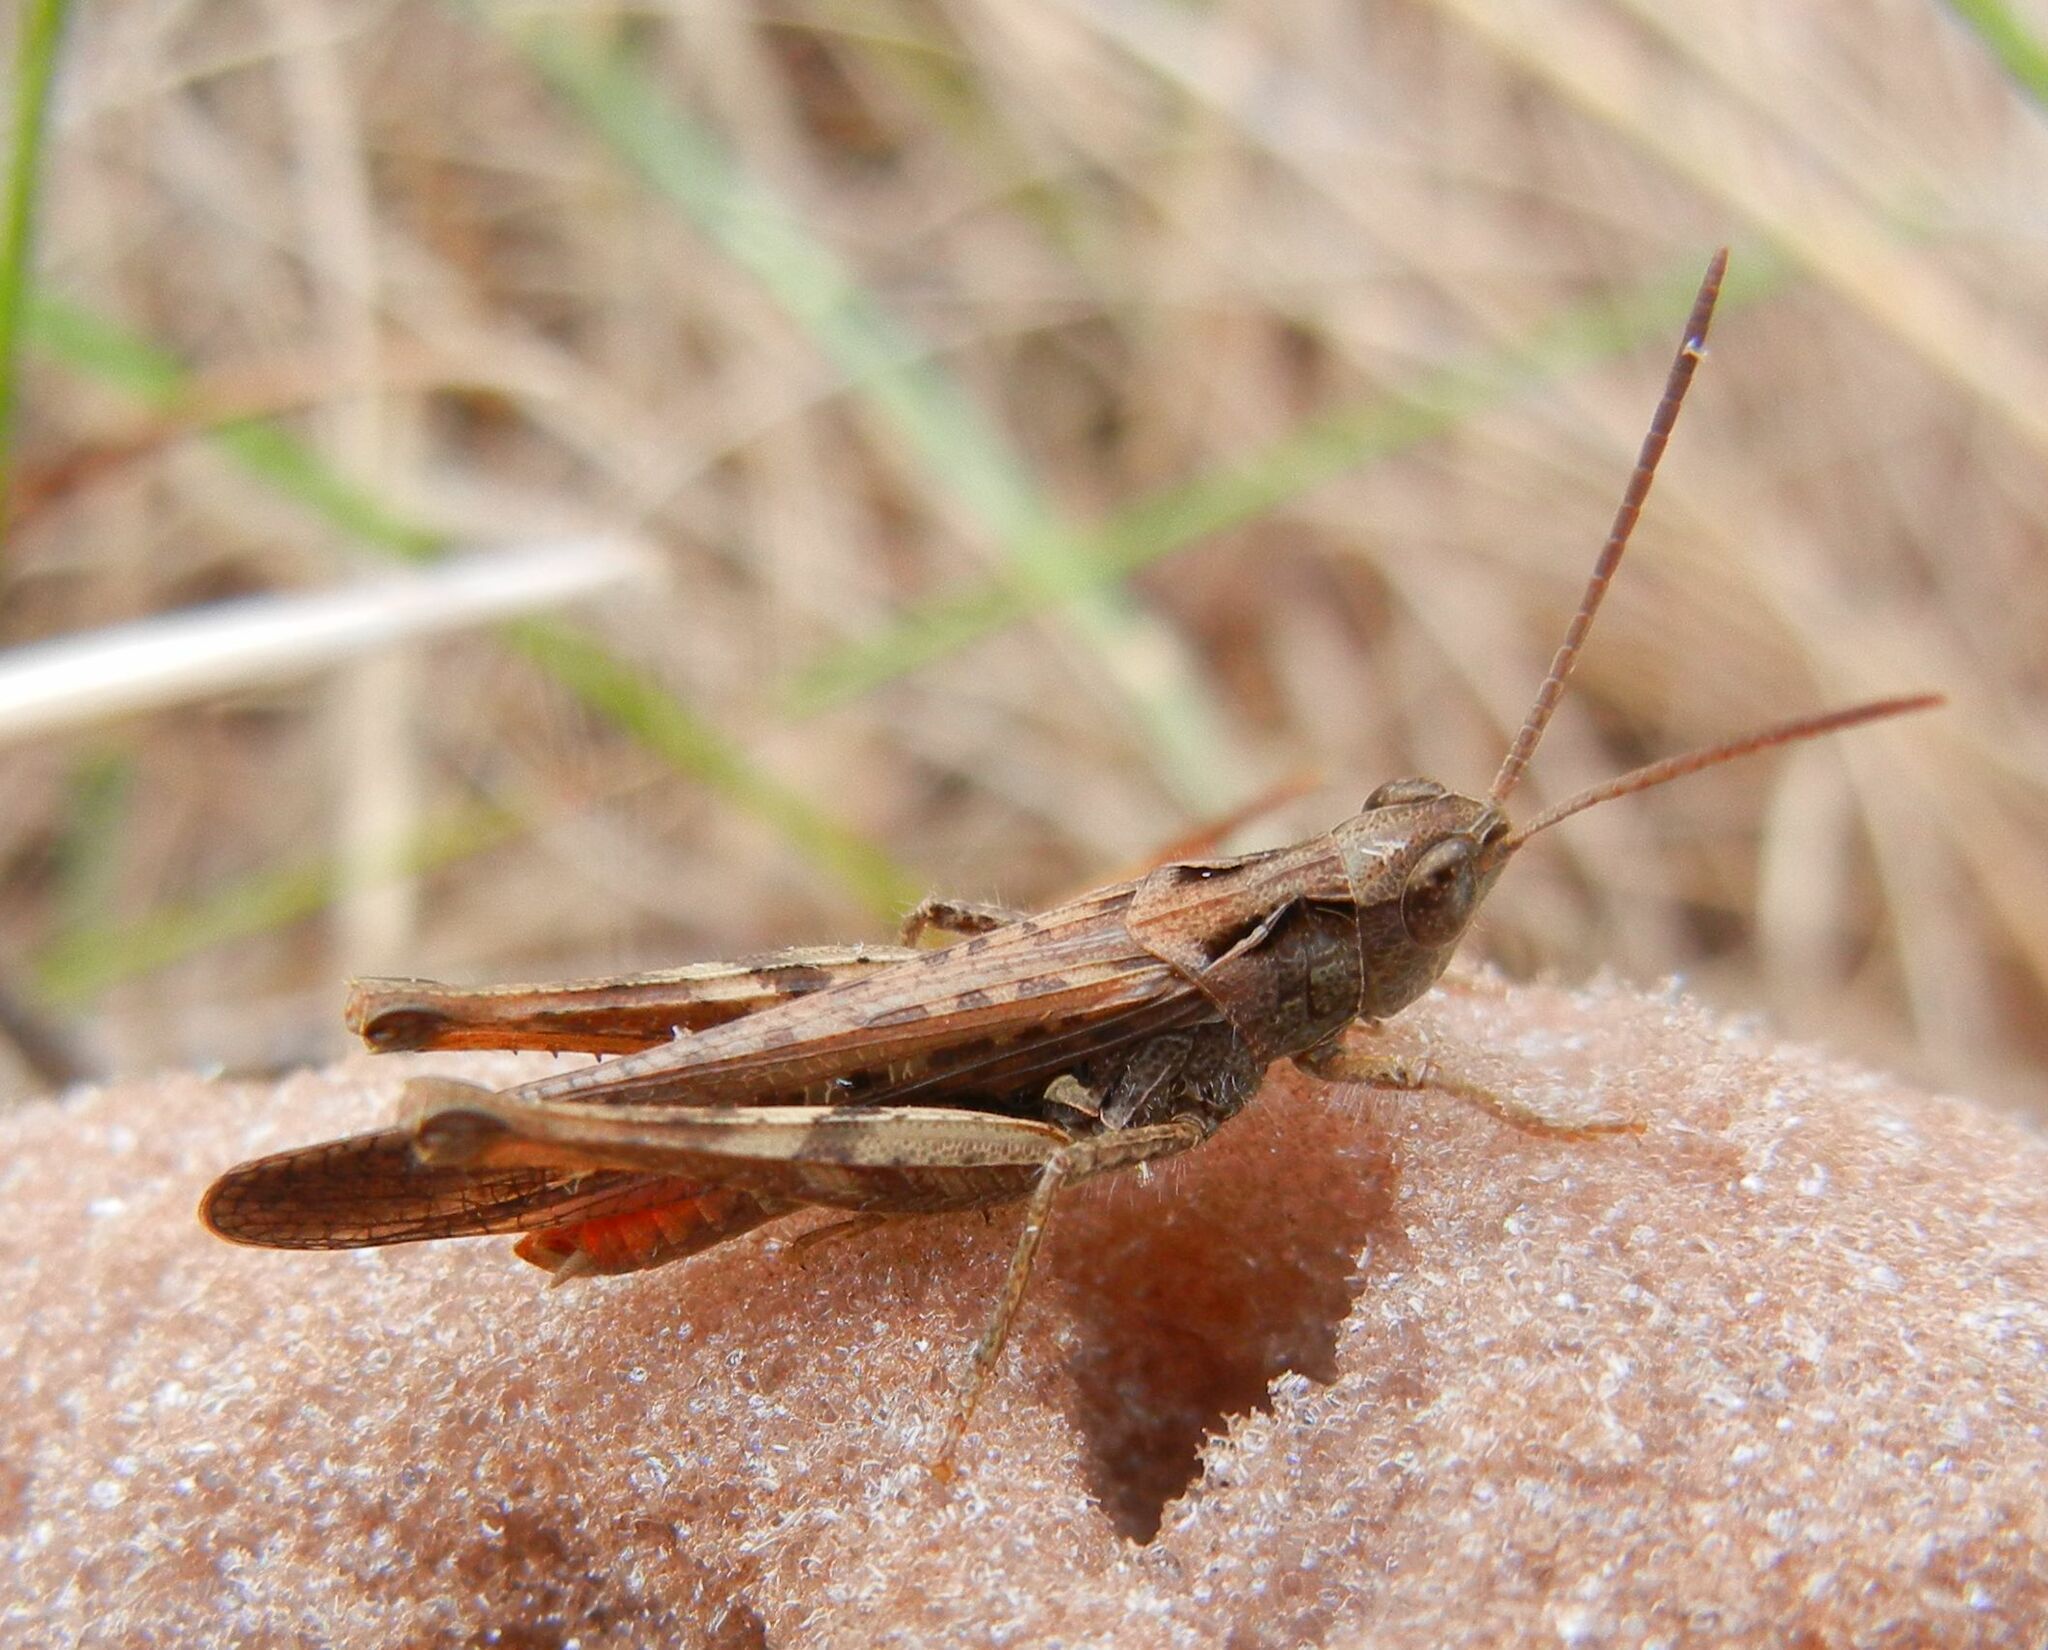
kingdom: Animalia
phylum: Arthropoda
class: Insecta
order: Orthoptera
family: Acrididae
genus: Chorthippus
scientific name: Chorthippus brunneus
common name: Field grasshopper
